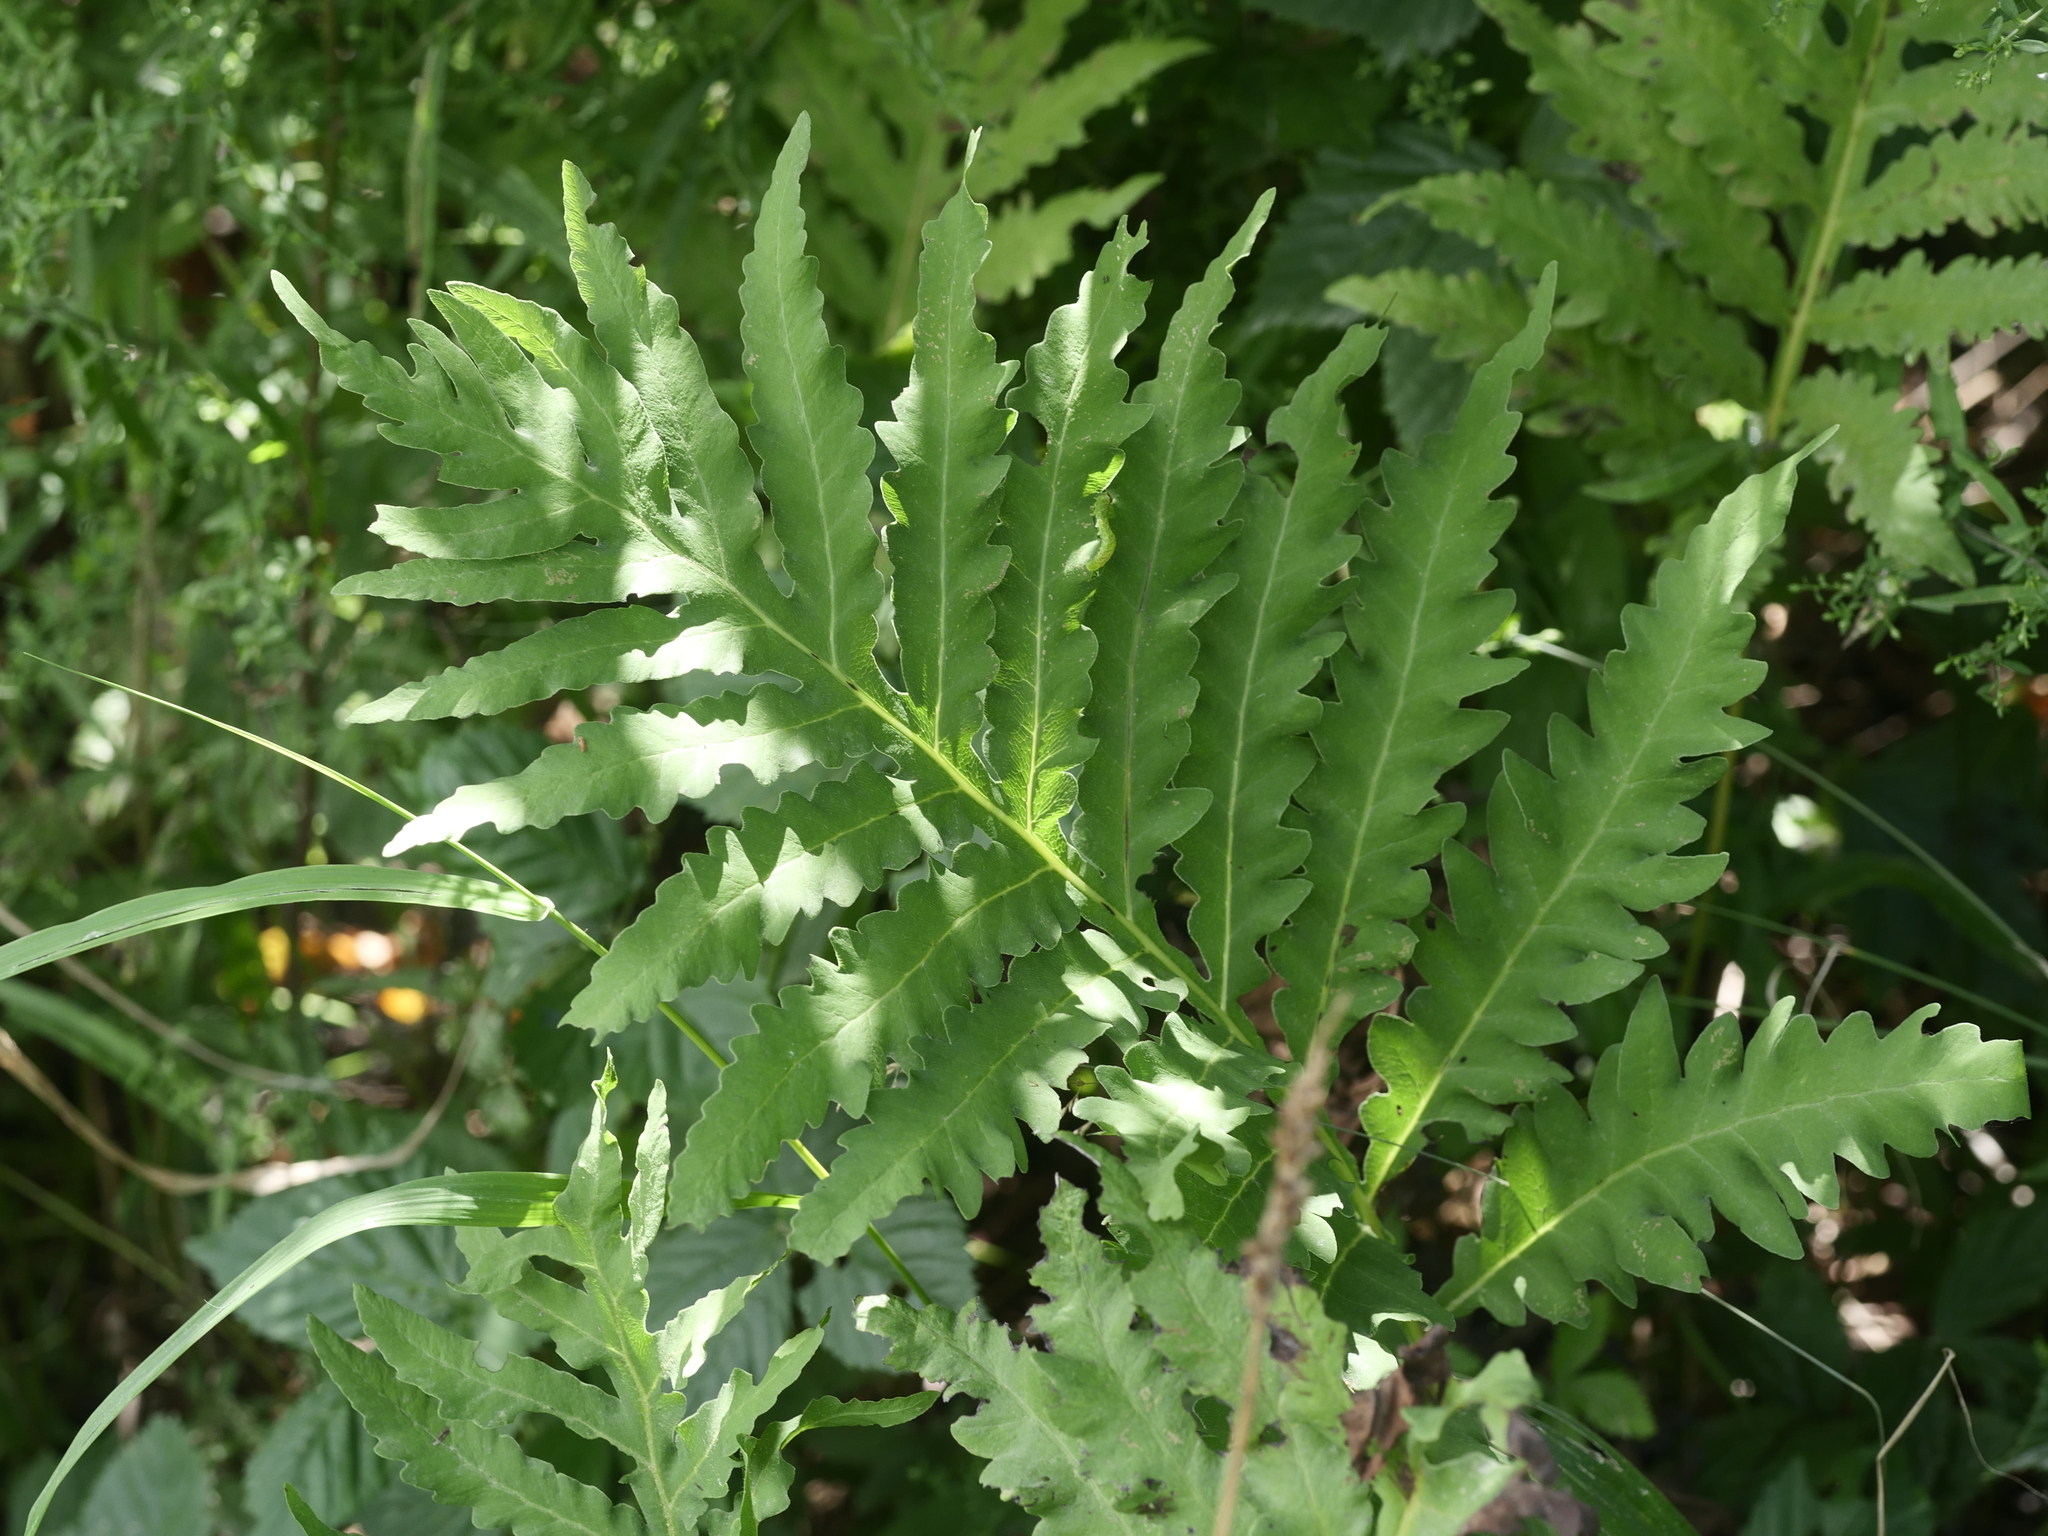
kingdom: Plantae
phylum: Tracheophyta
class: Polypodiopsida
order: Polypodiales
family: Onocleaceae
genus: Onoclea
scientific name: Onoclea sensibilis
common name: Sensitive fern
